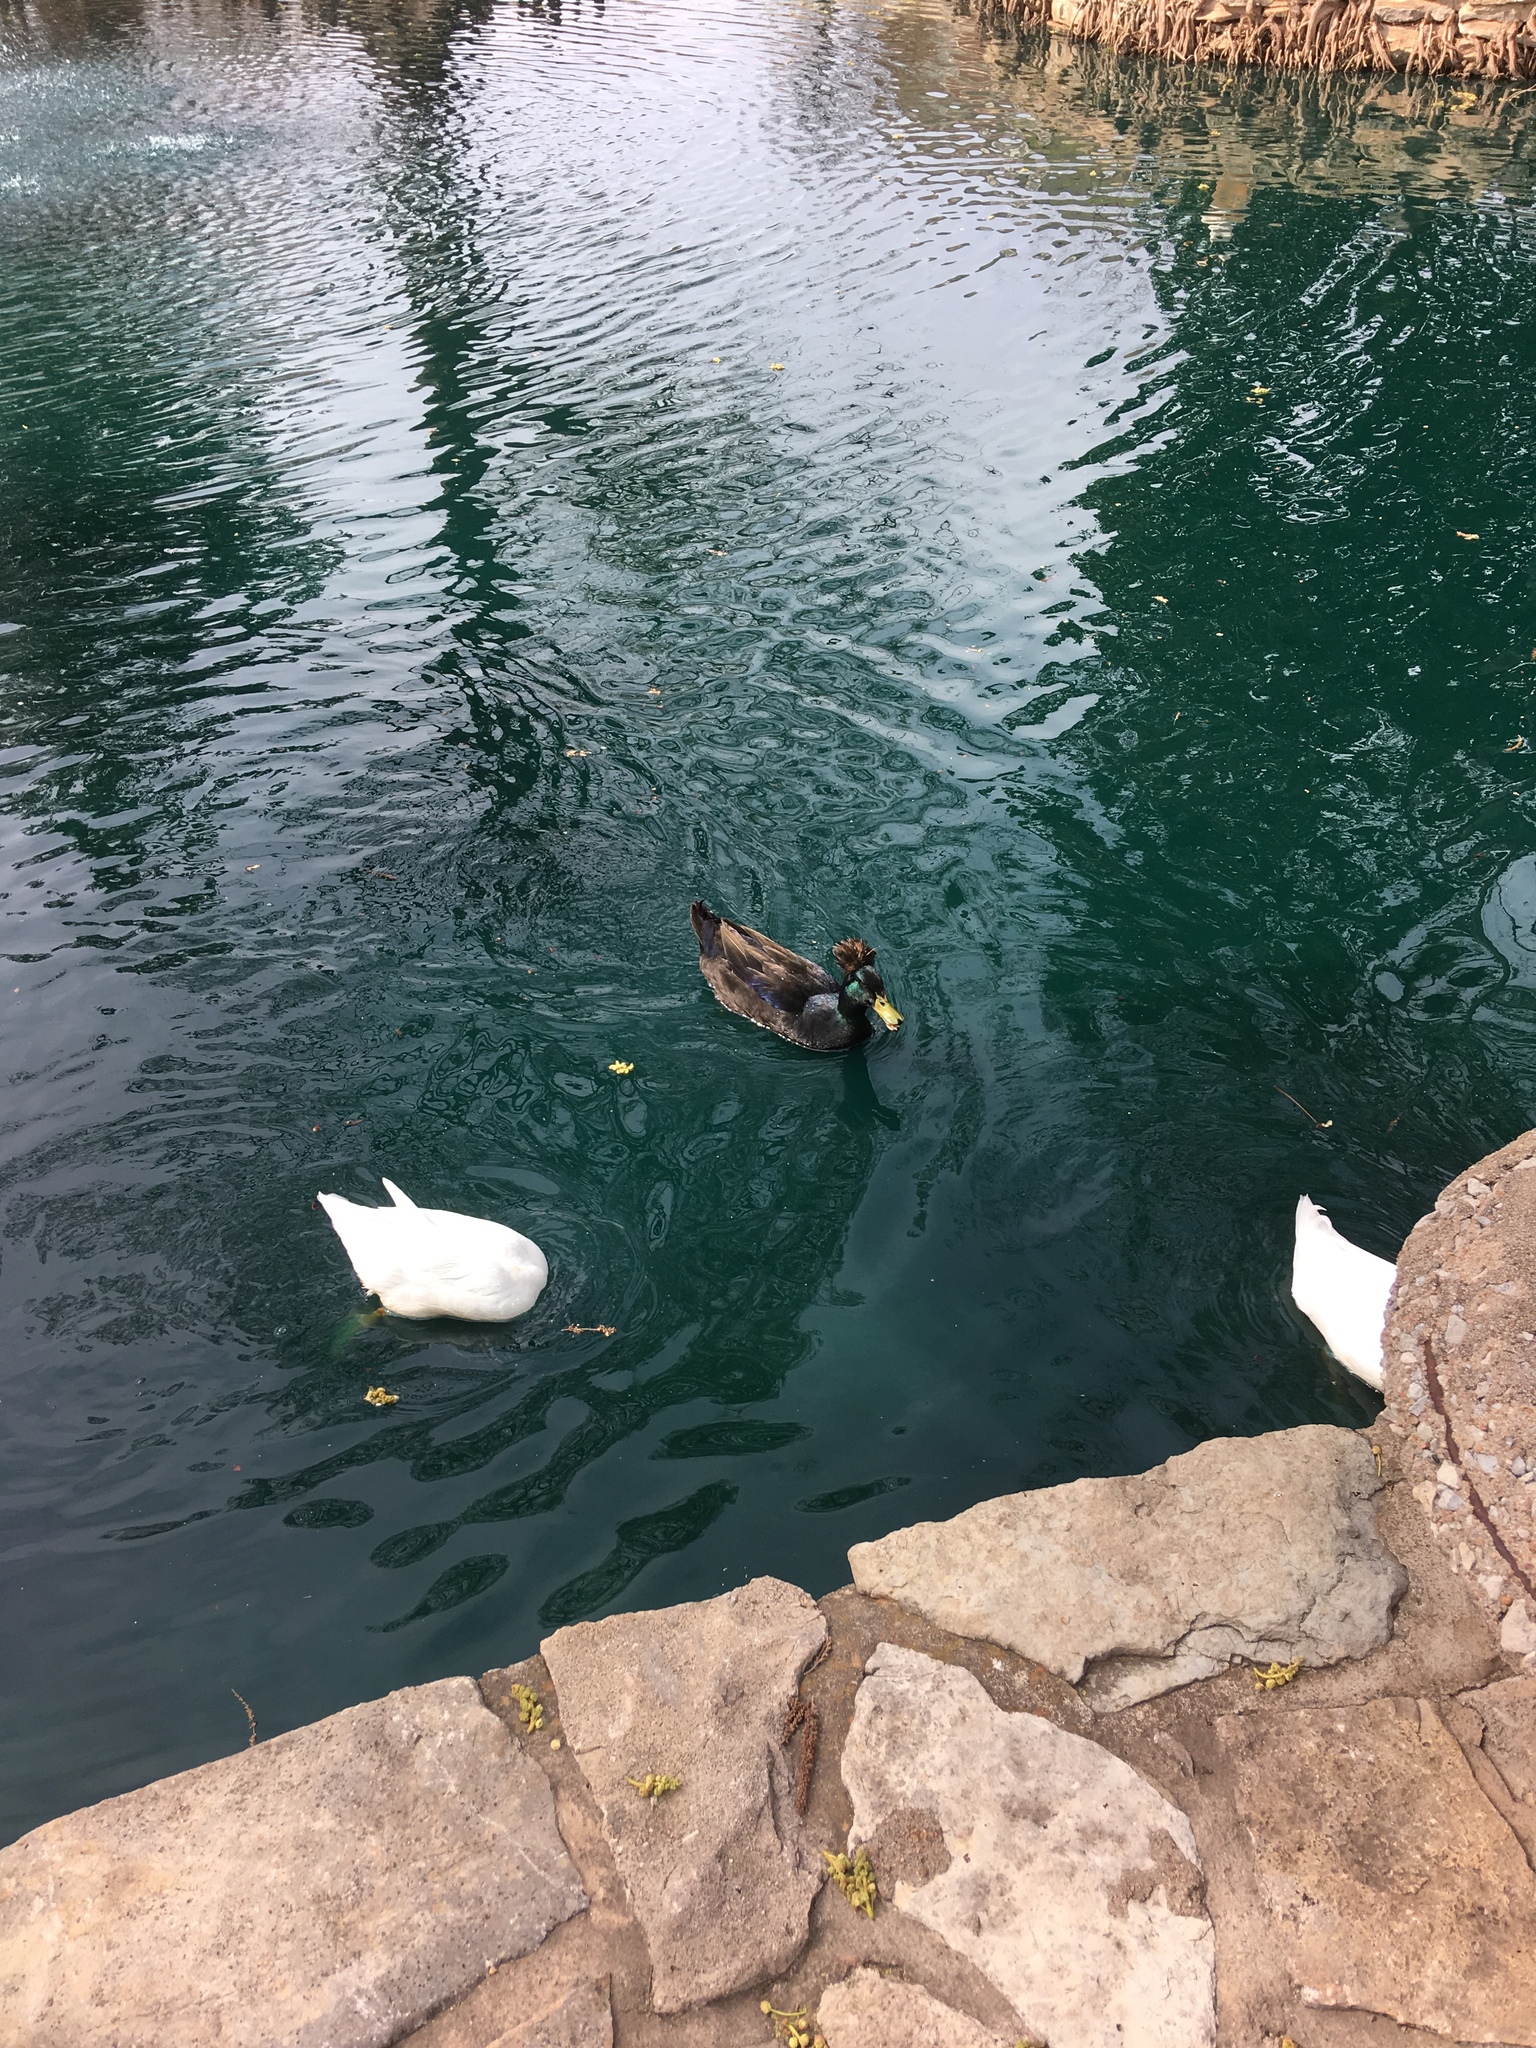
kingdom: Animalia
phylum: Chordata
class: Aves
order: Anseriformes
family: Anatidae
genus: Anas
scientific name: Anas platyrhynchos
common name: Mallard
